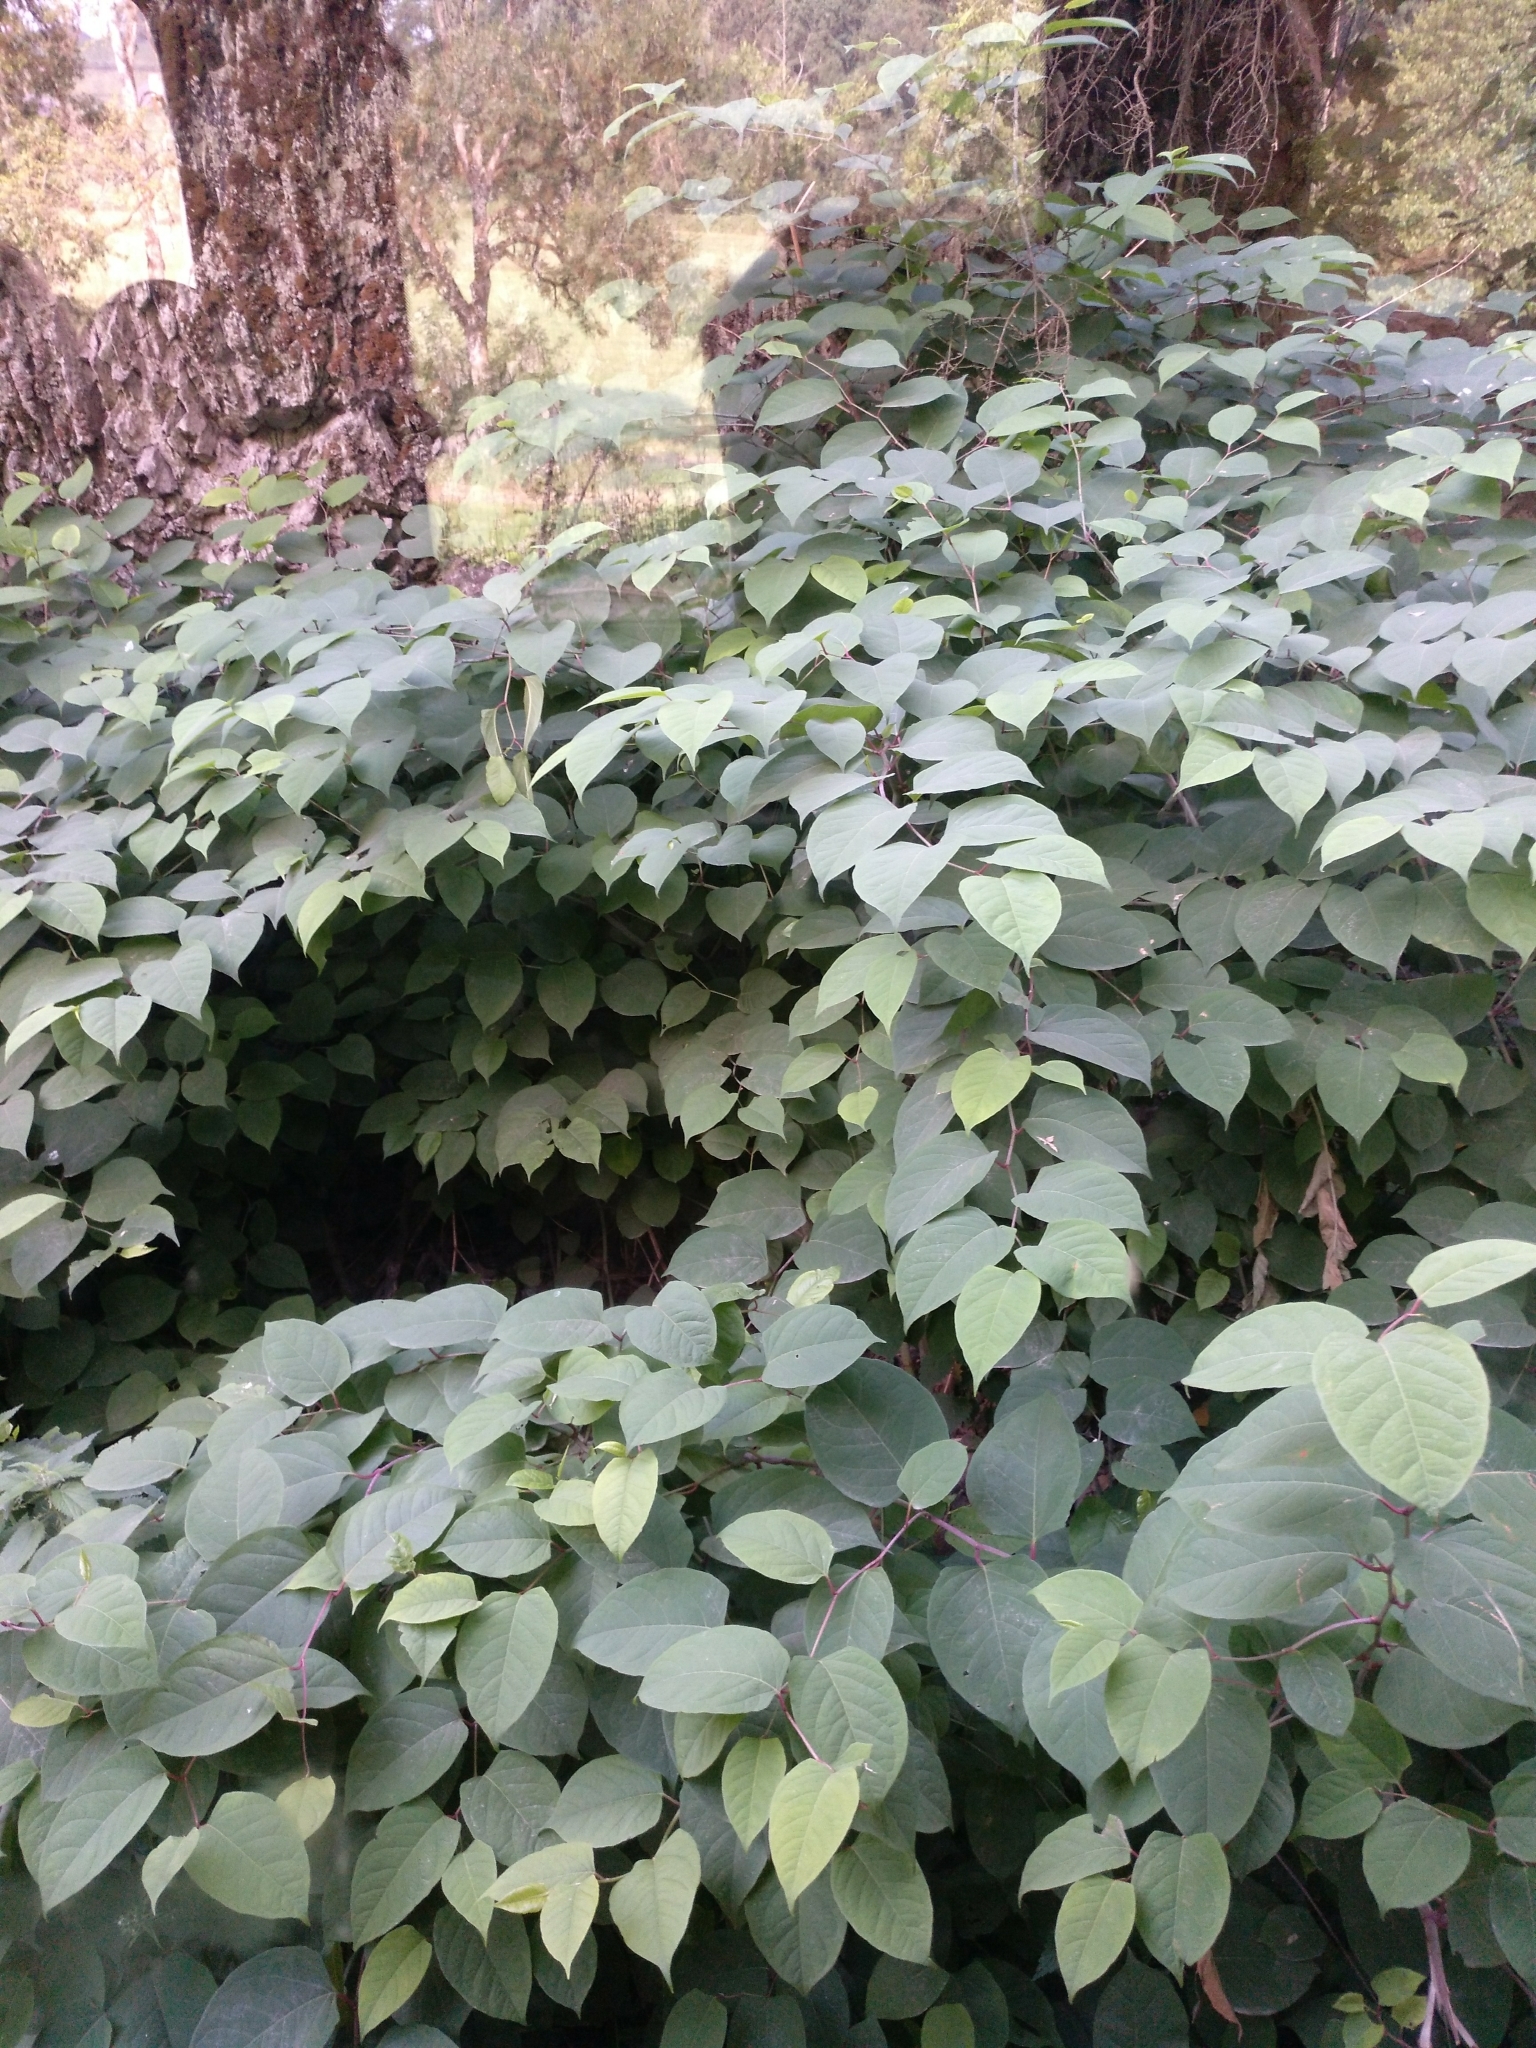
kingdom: Plantae
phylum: Tracheophyta
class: Magnoliopsida
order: Caryophyllales
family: Polygonaceae
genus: Reynoutria
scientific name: Reynoutria japonica
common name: Japanese knotweed
